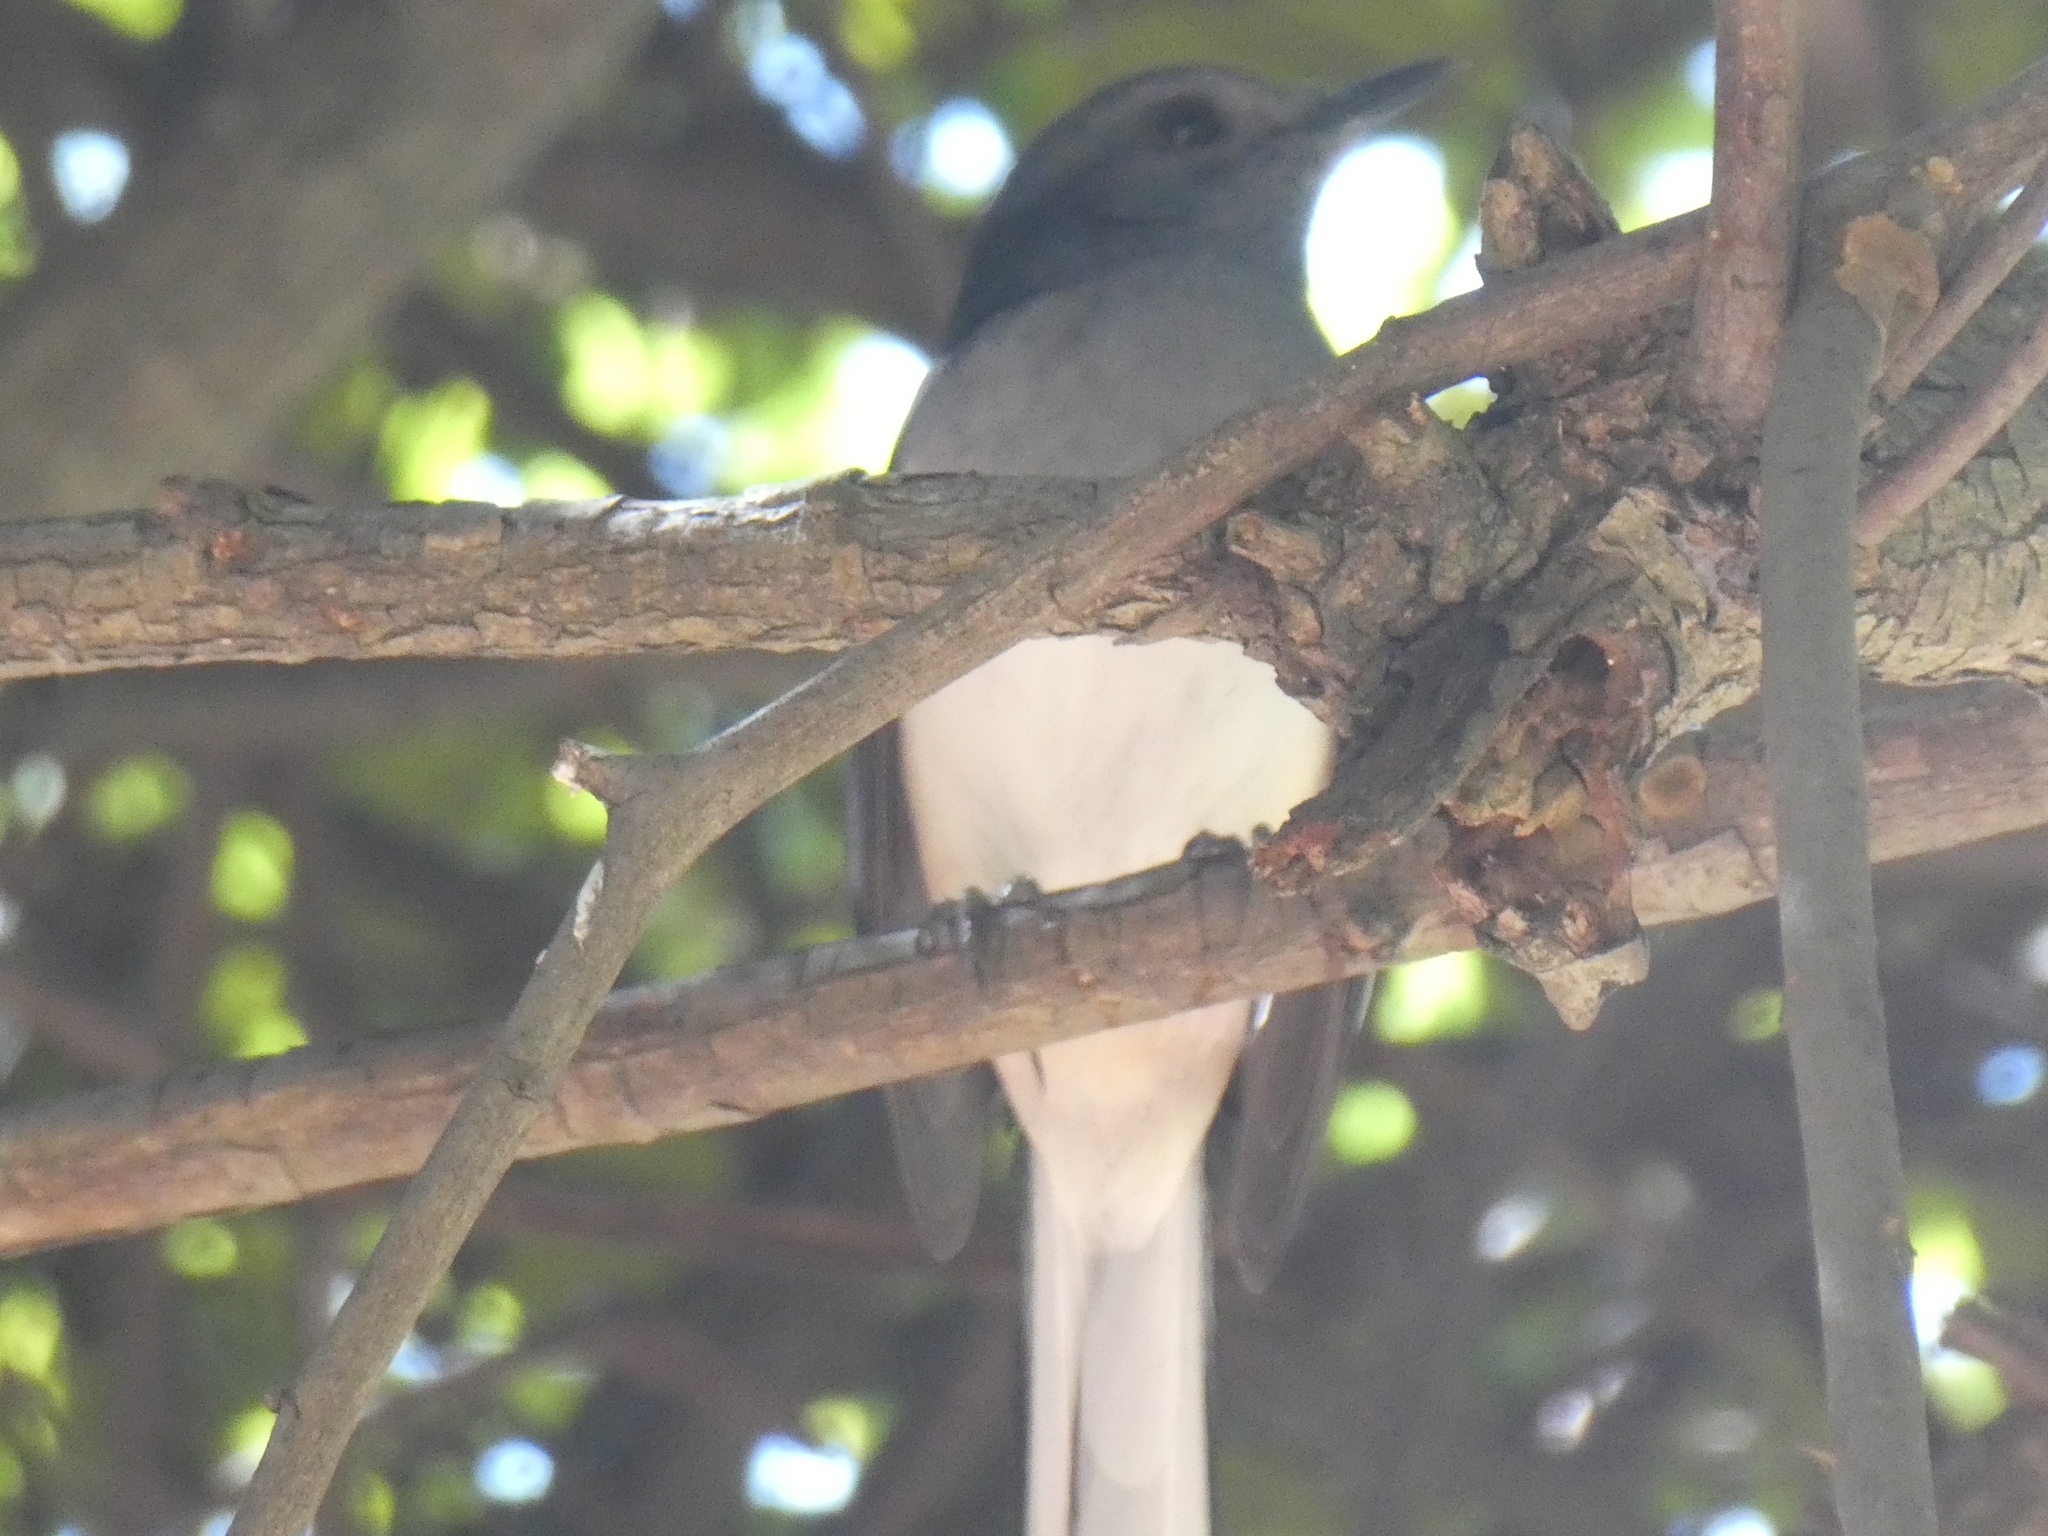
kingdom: Animalia
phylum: Chordata
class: Aves
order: Passeriformes
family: Muscicapidae
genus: Copsychus
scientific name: Copsychus saularis
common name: Oriental magpie-robin
